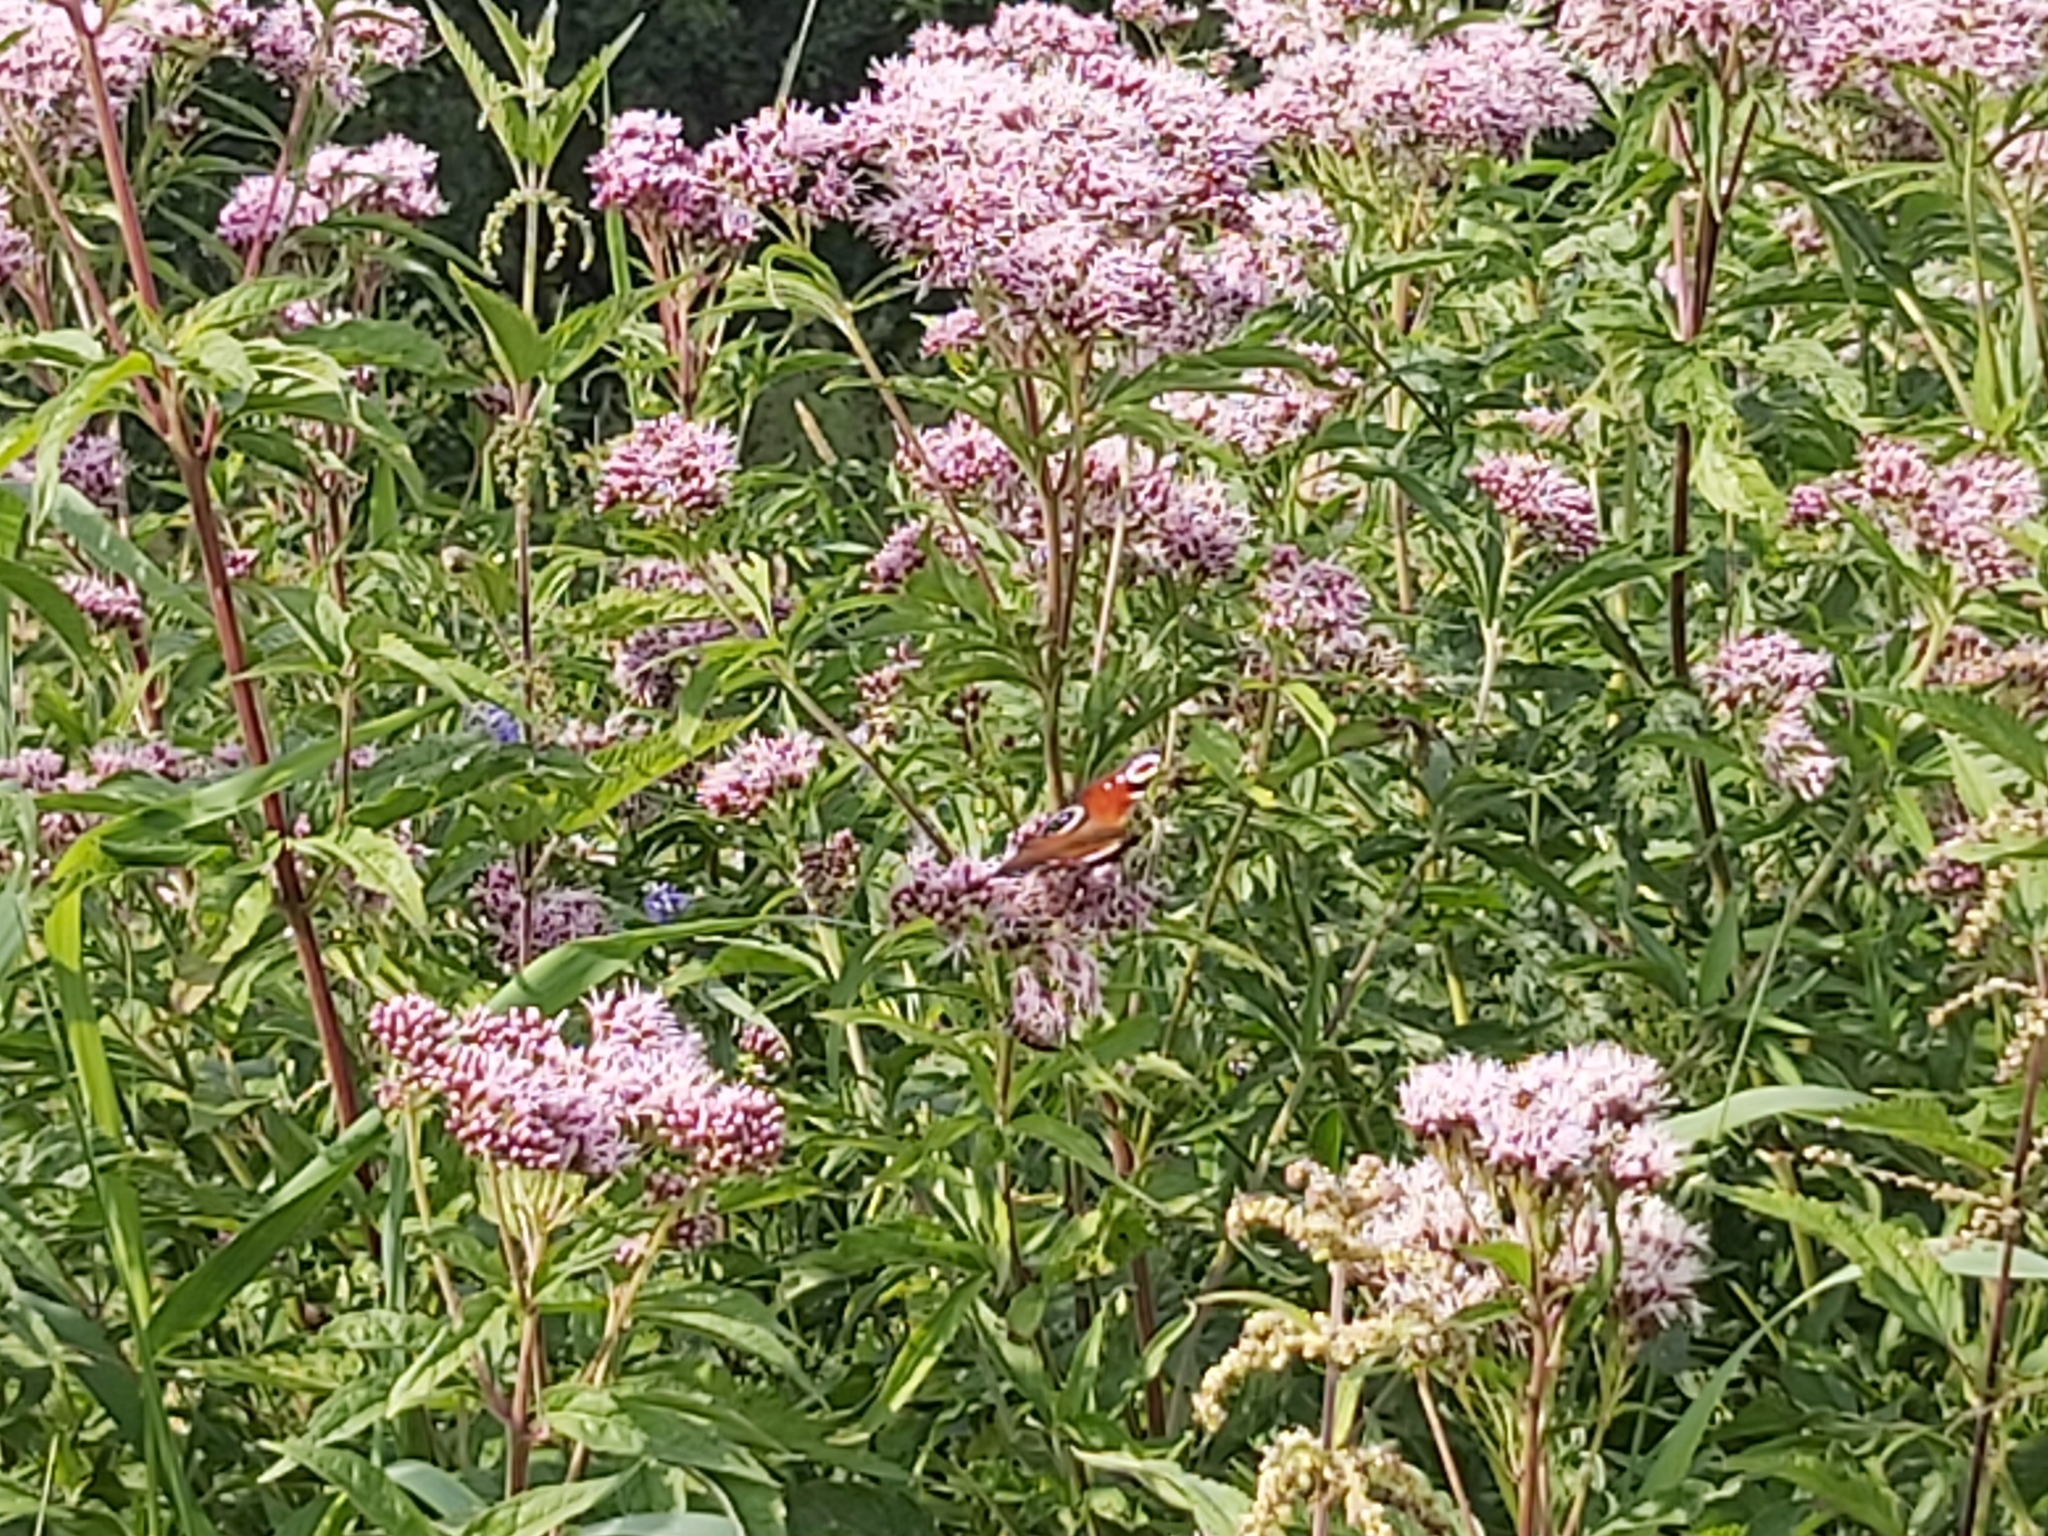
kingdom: Animalia
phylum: Arthropoda
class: Insecta
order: Lepidoptera
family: Nymphalidae
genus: Aglais
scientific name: Aglais io
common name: Peacock
